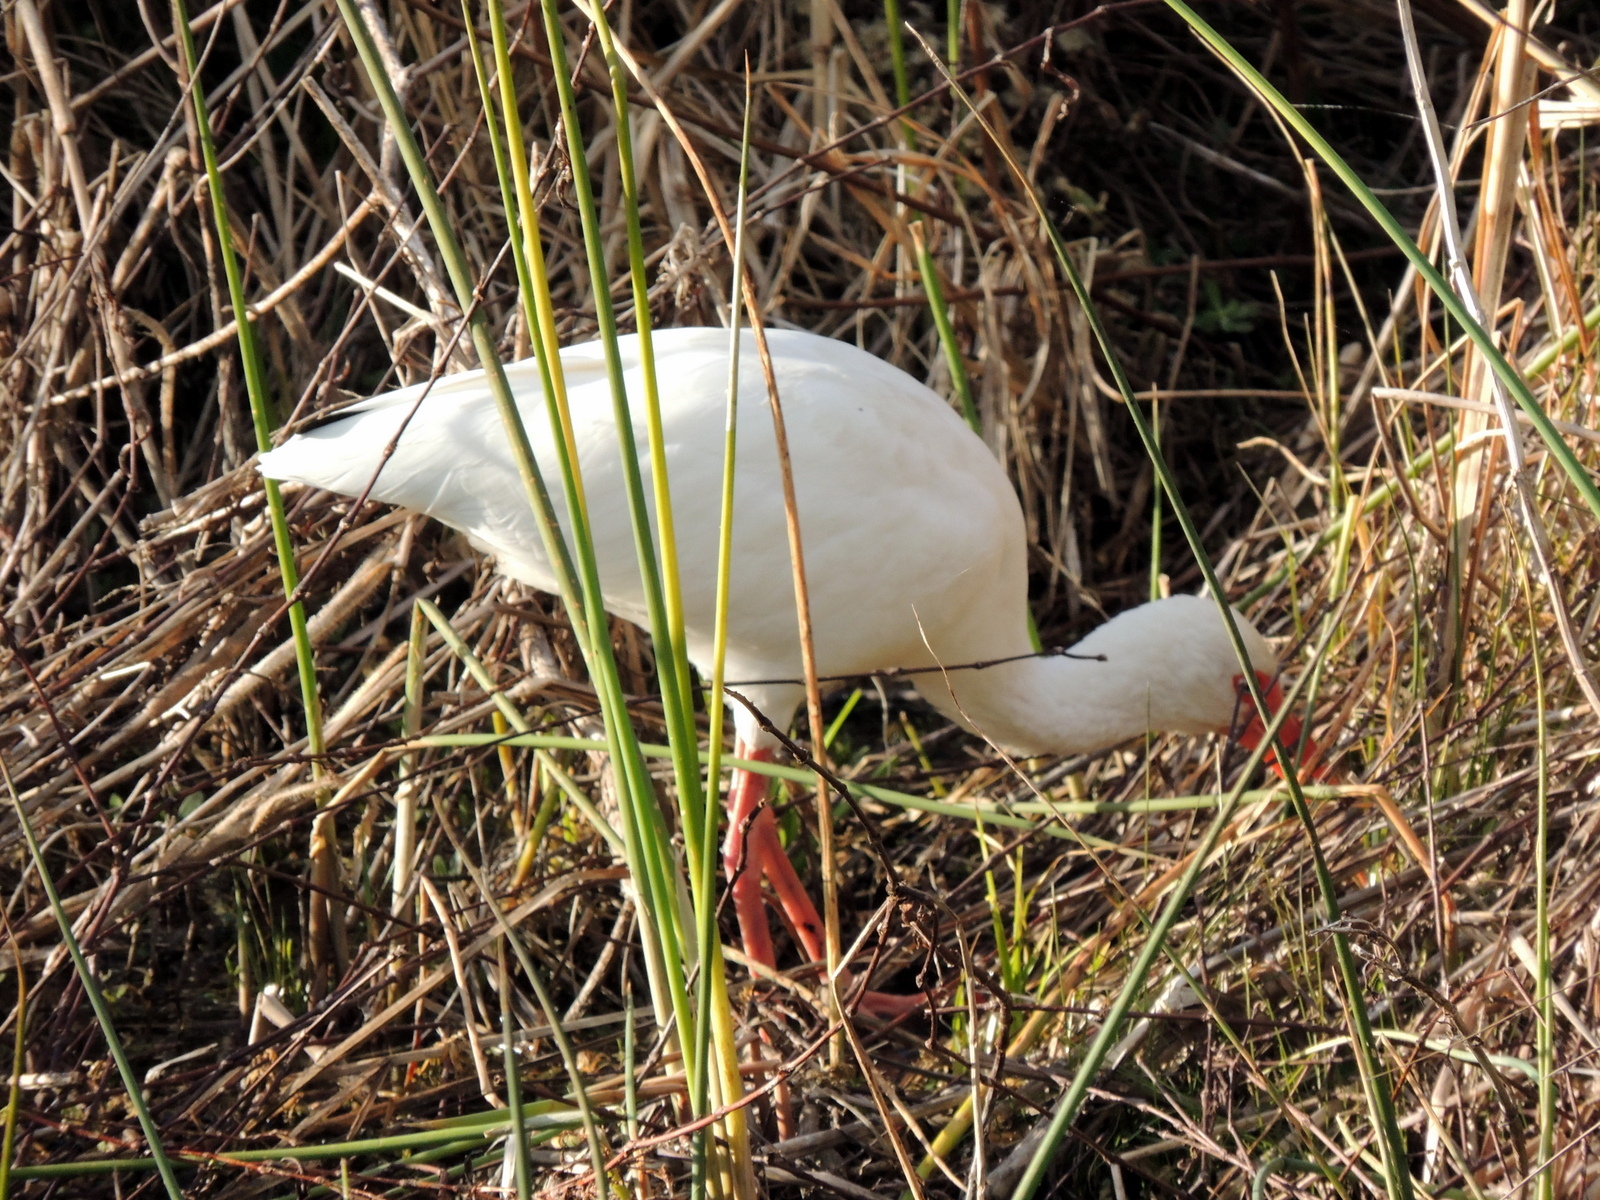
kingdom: Animalia
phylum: Chordata
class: Aves
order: Pelecaniformes
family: Threskiornithidae
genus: Eudocimus
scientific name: Eudocimus albus
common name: White ibis
